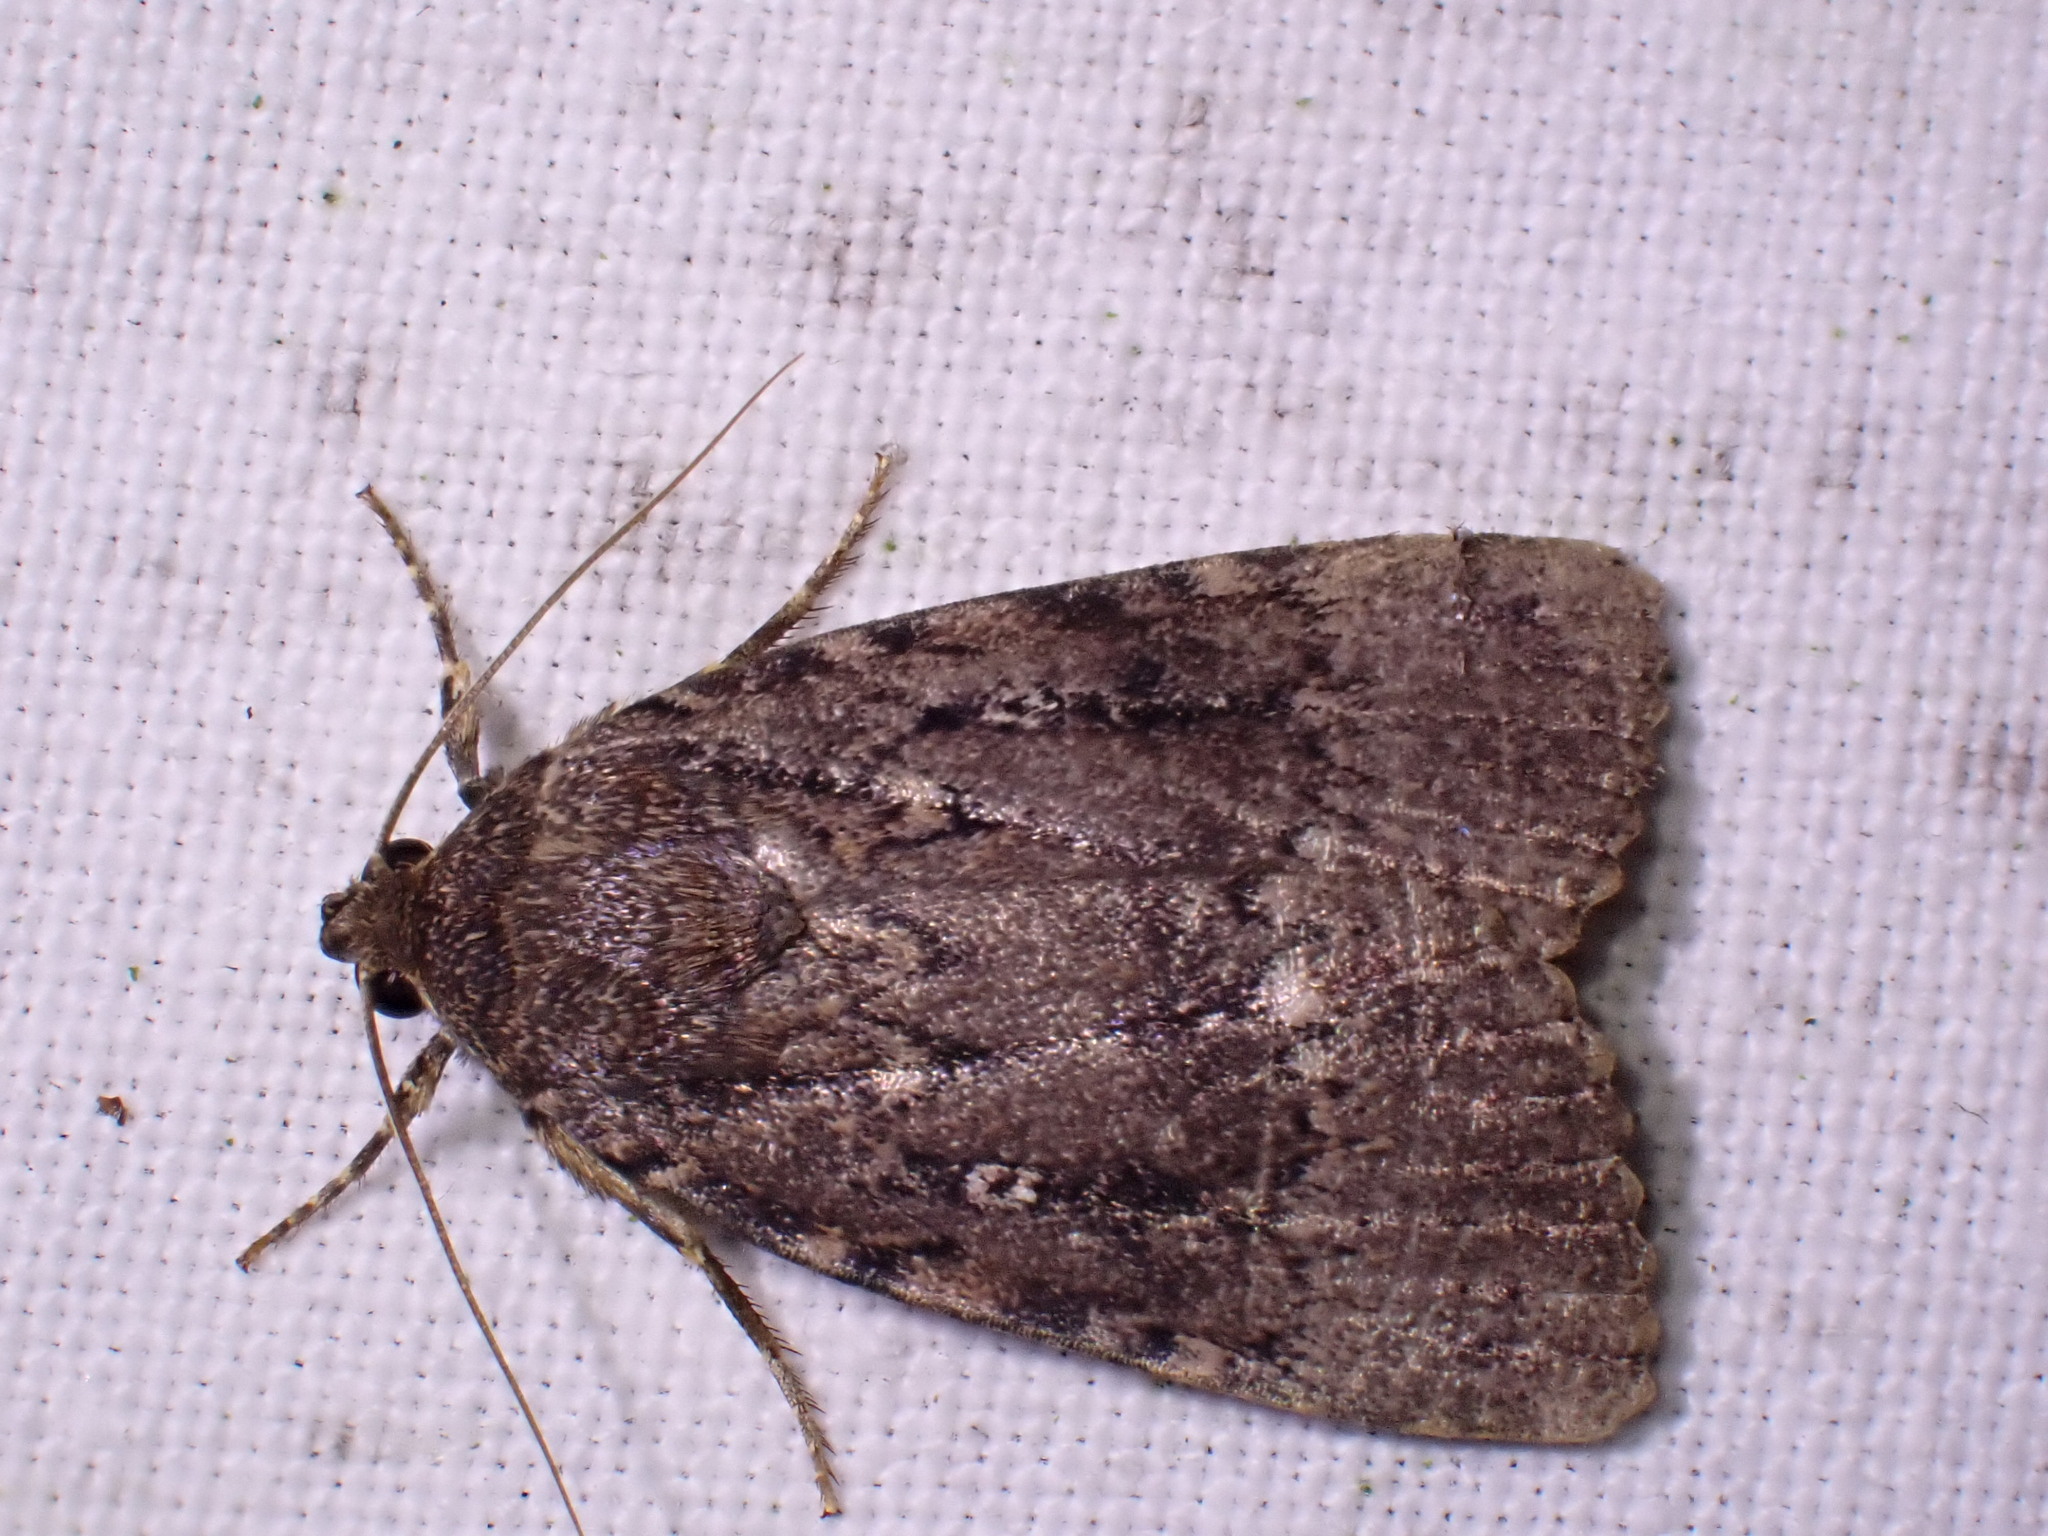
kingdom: Animalia
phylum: Arthropoda
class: Insecta
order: Lepidoptera
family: Noctuidae
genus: Amphipyra
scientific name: Amphipyra pyramidea
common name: Copper underwing
